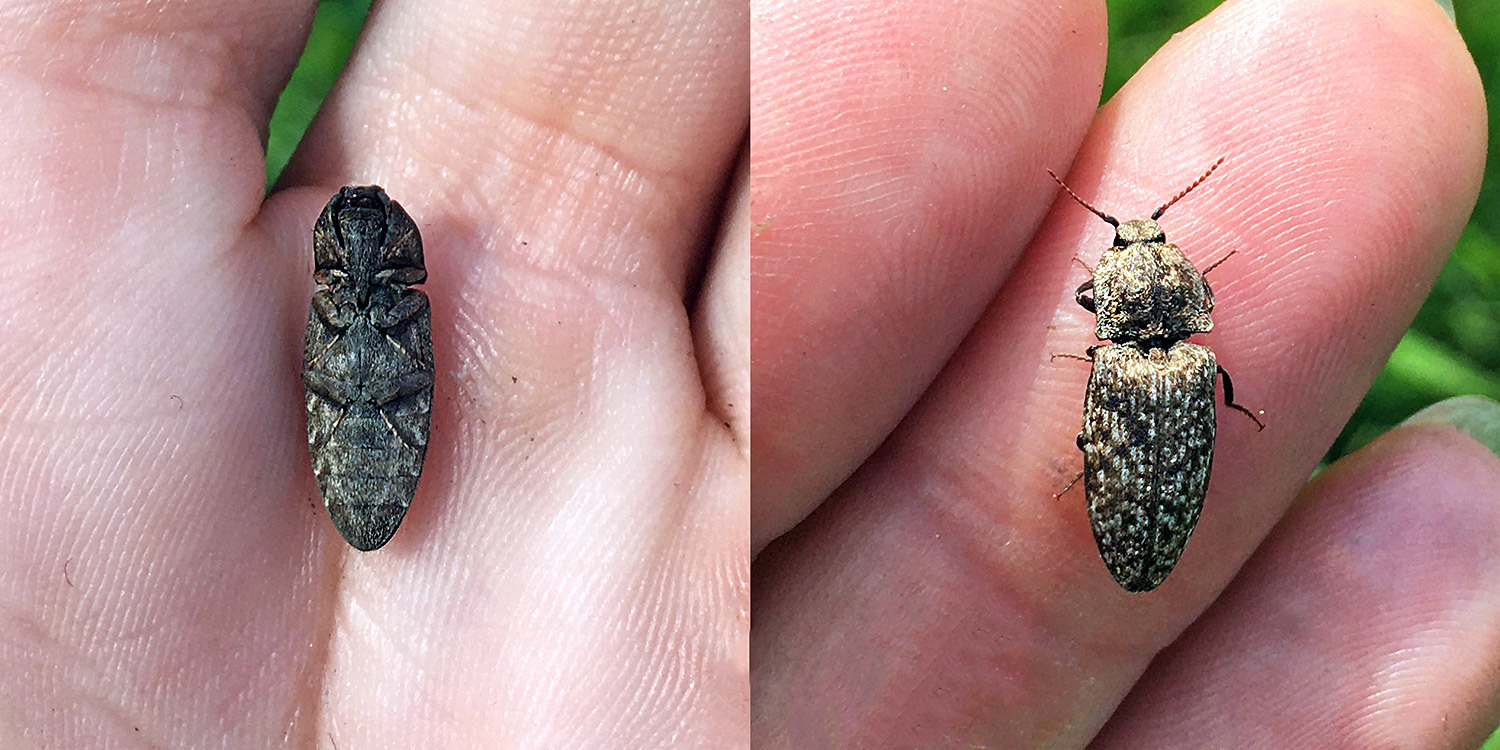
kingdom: Animalia
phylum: Arthropoda
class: Insecta
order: Coleoptera
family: Elateridae
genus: Agrypnus
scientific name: Agrypnus murinus
